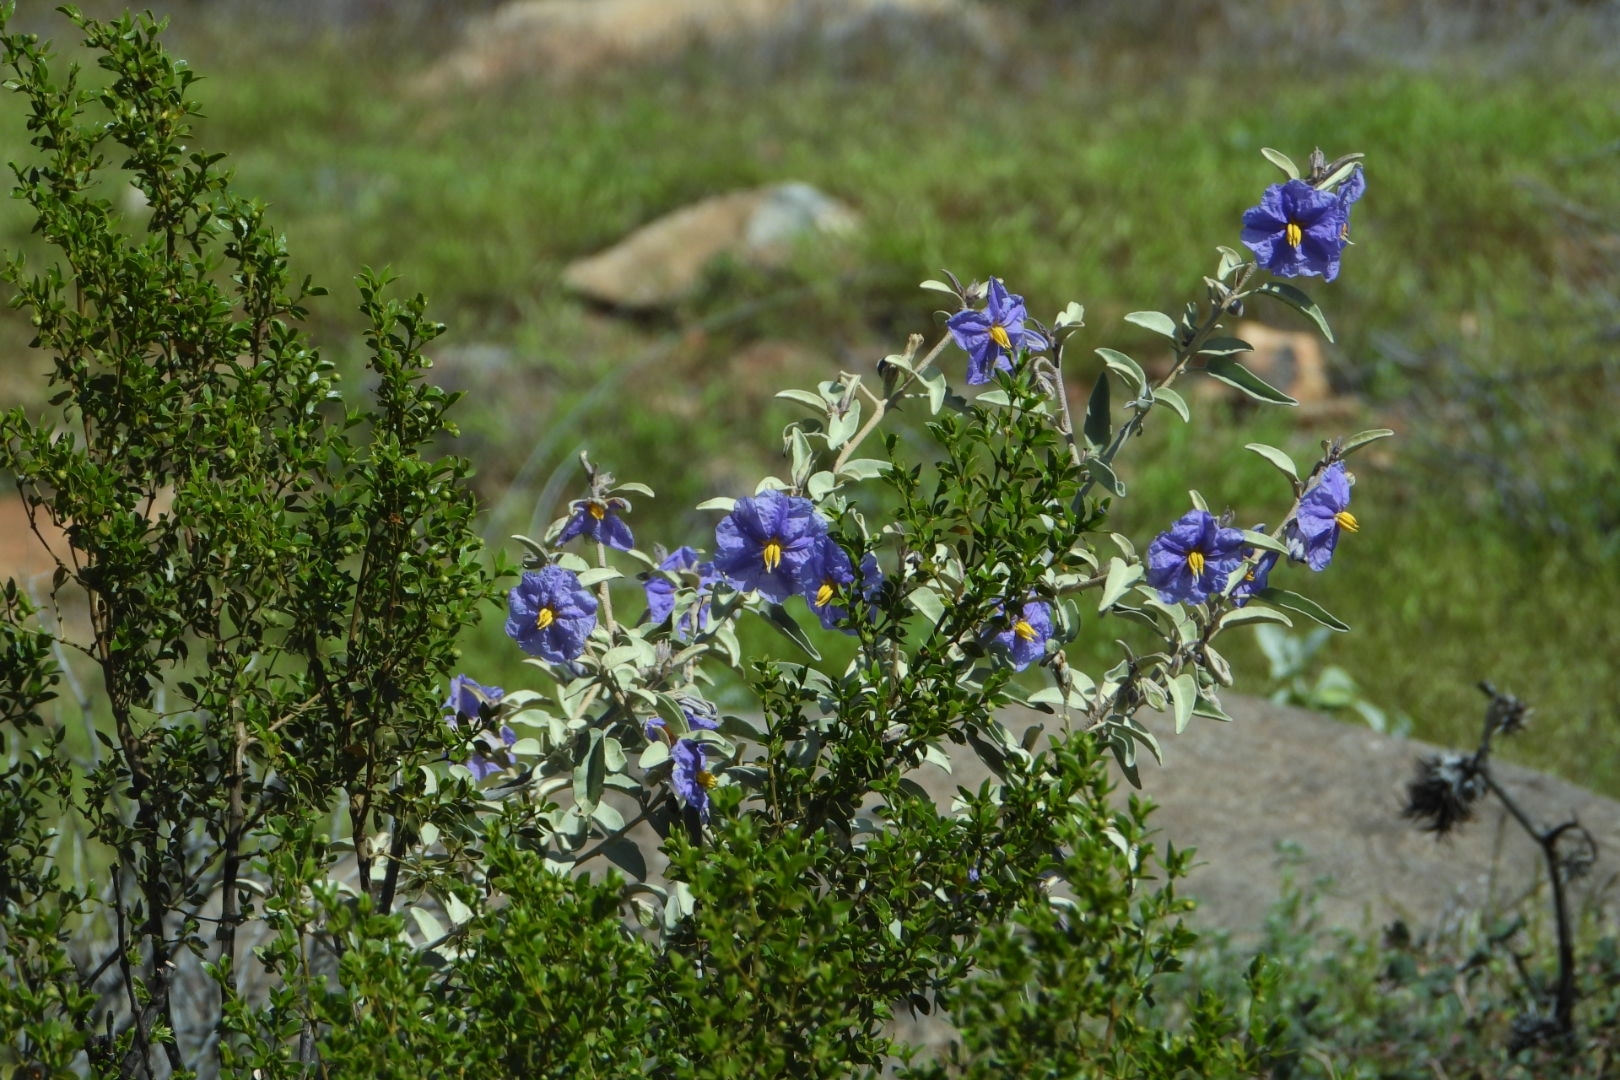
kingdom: Plantae
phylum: Tracheophyta
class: Magnoliopsida
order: Solanales
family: Solanaceae
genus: Solanum
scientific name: Solanum hindsianum
